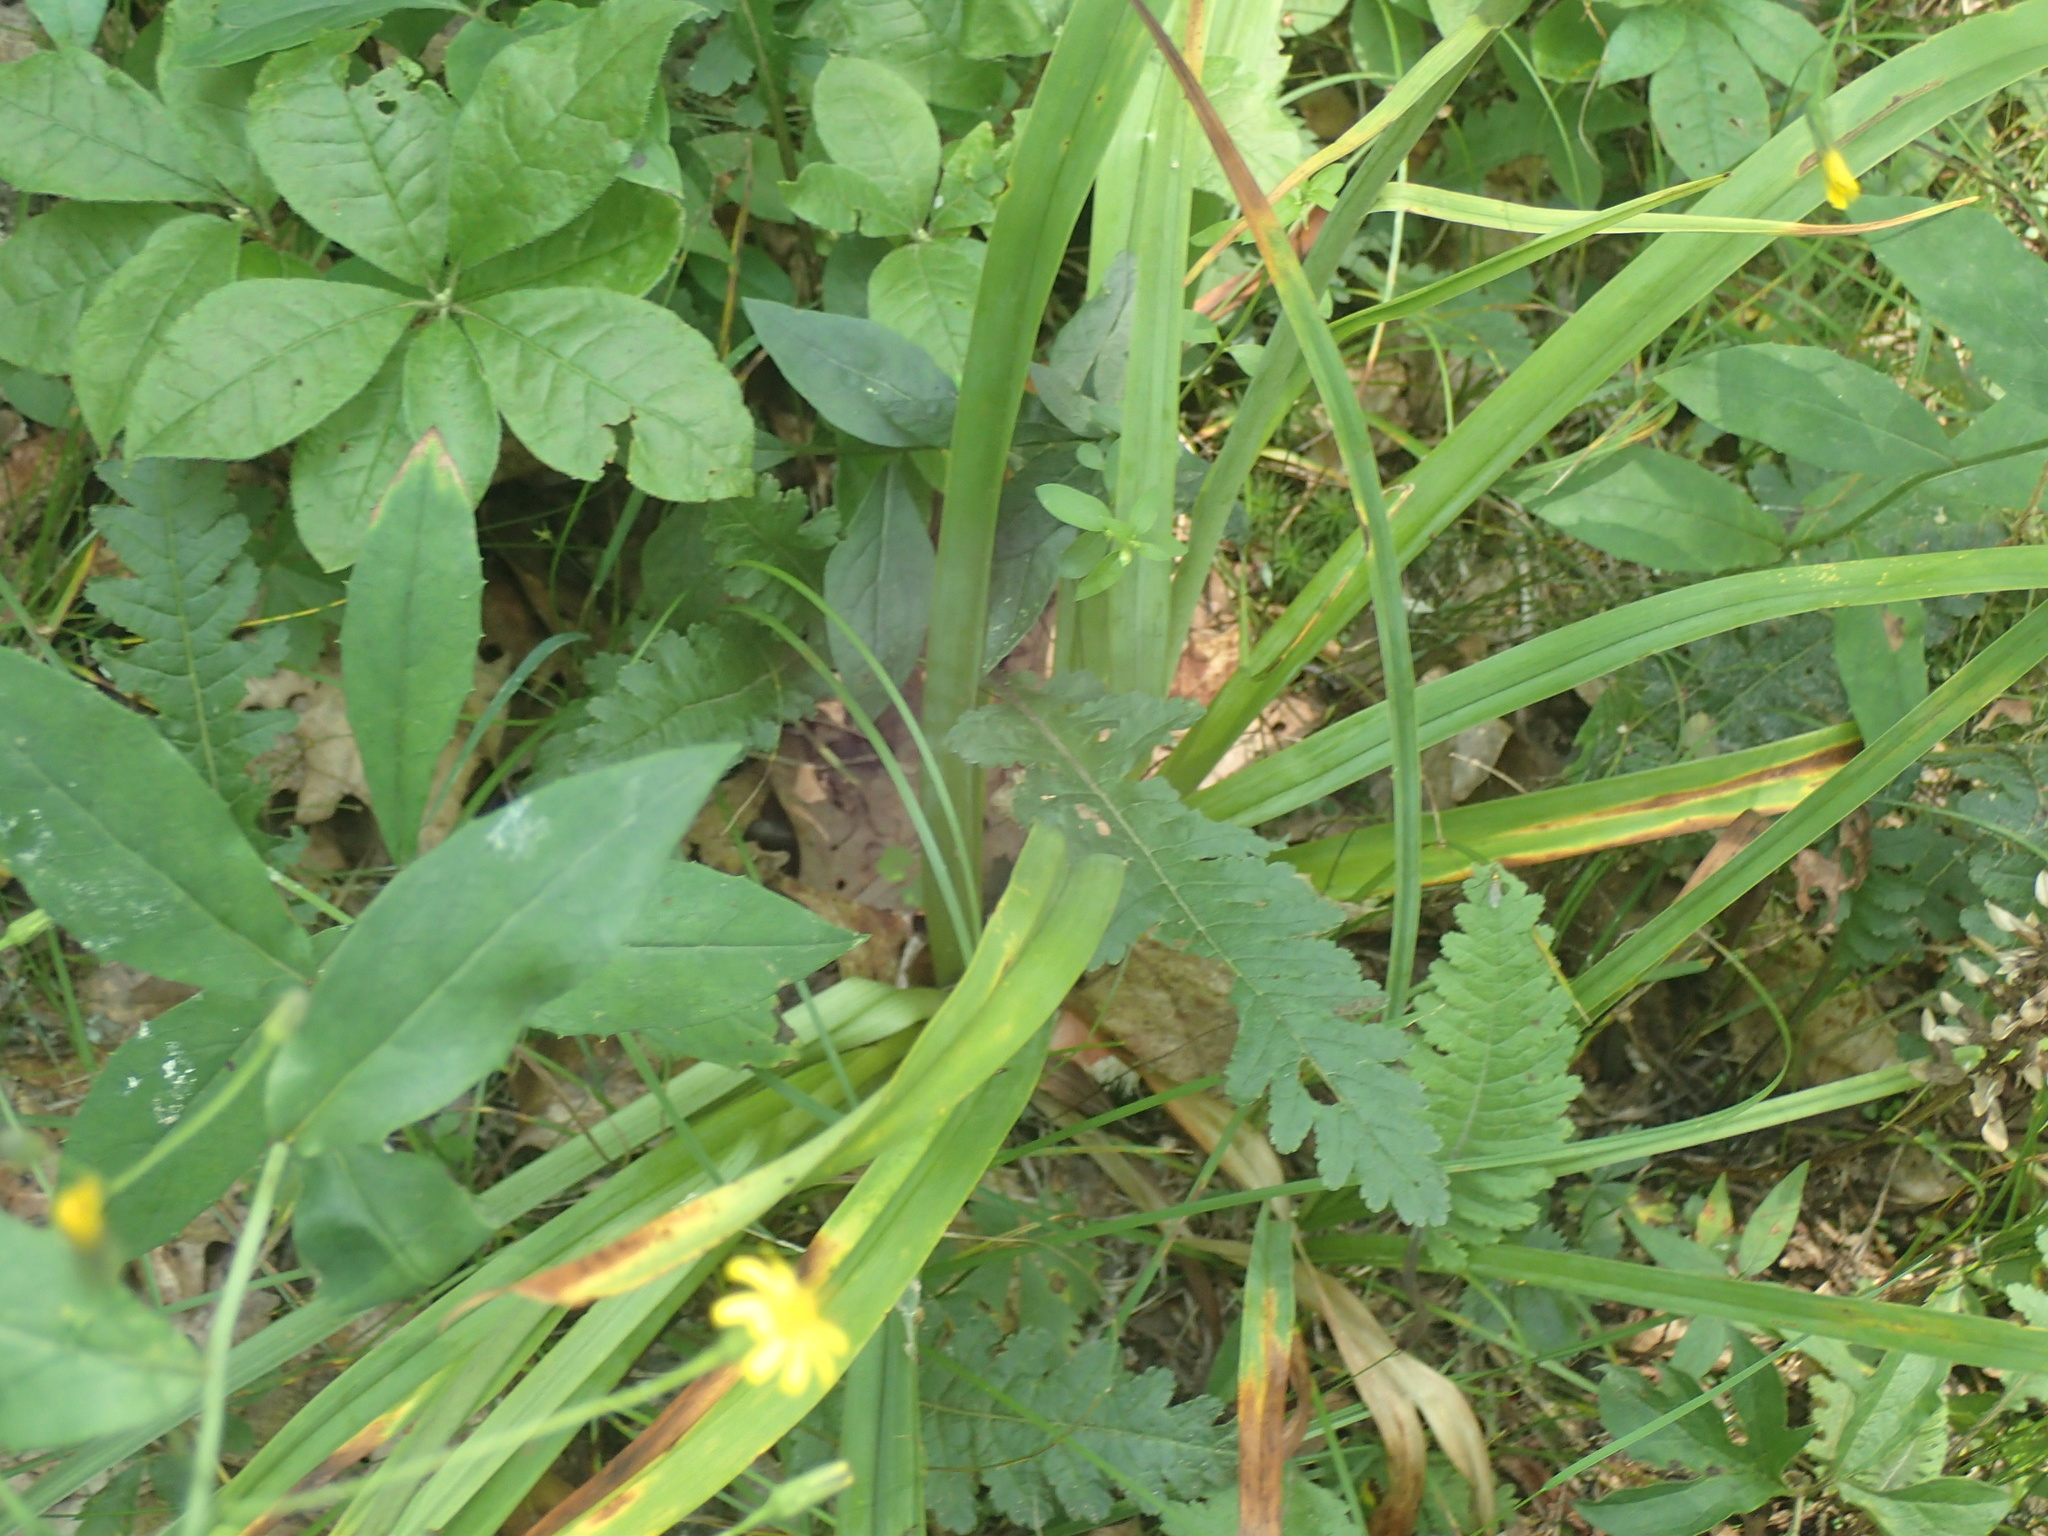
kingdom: Plantae
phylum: Tracheophyta
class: Liliopsida
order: Liliales
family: Melanthiaceae
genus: Amianthium
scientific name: Amianthium muscitoxicum
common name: Fly-poison
